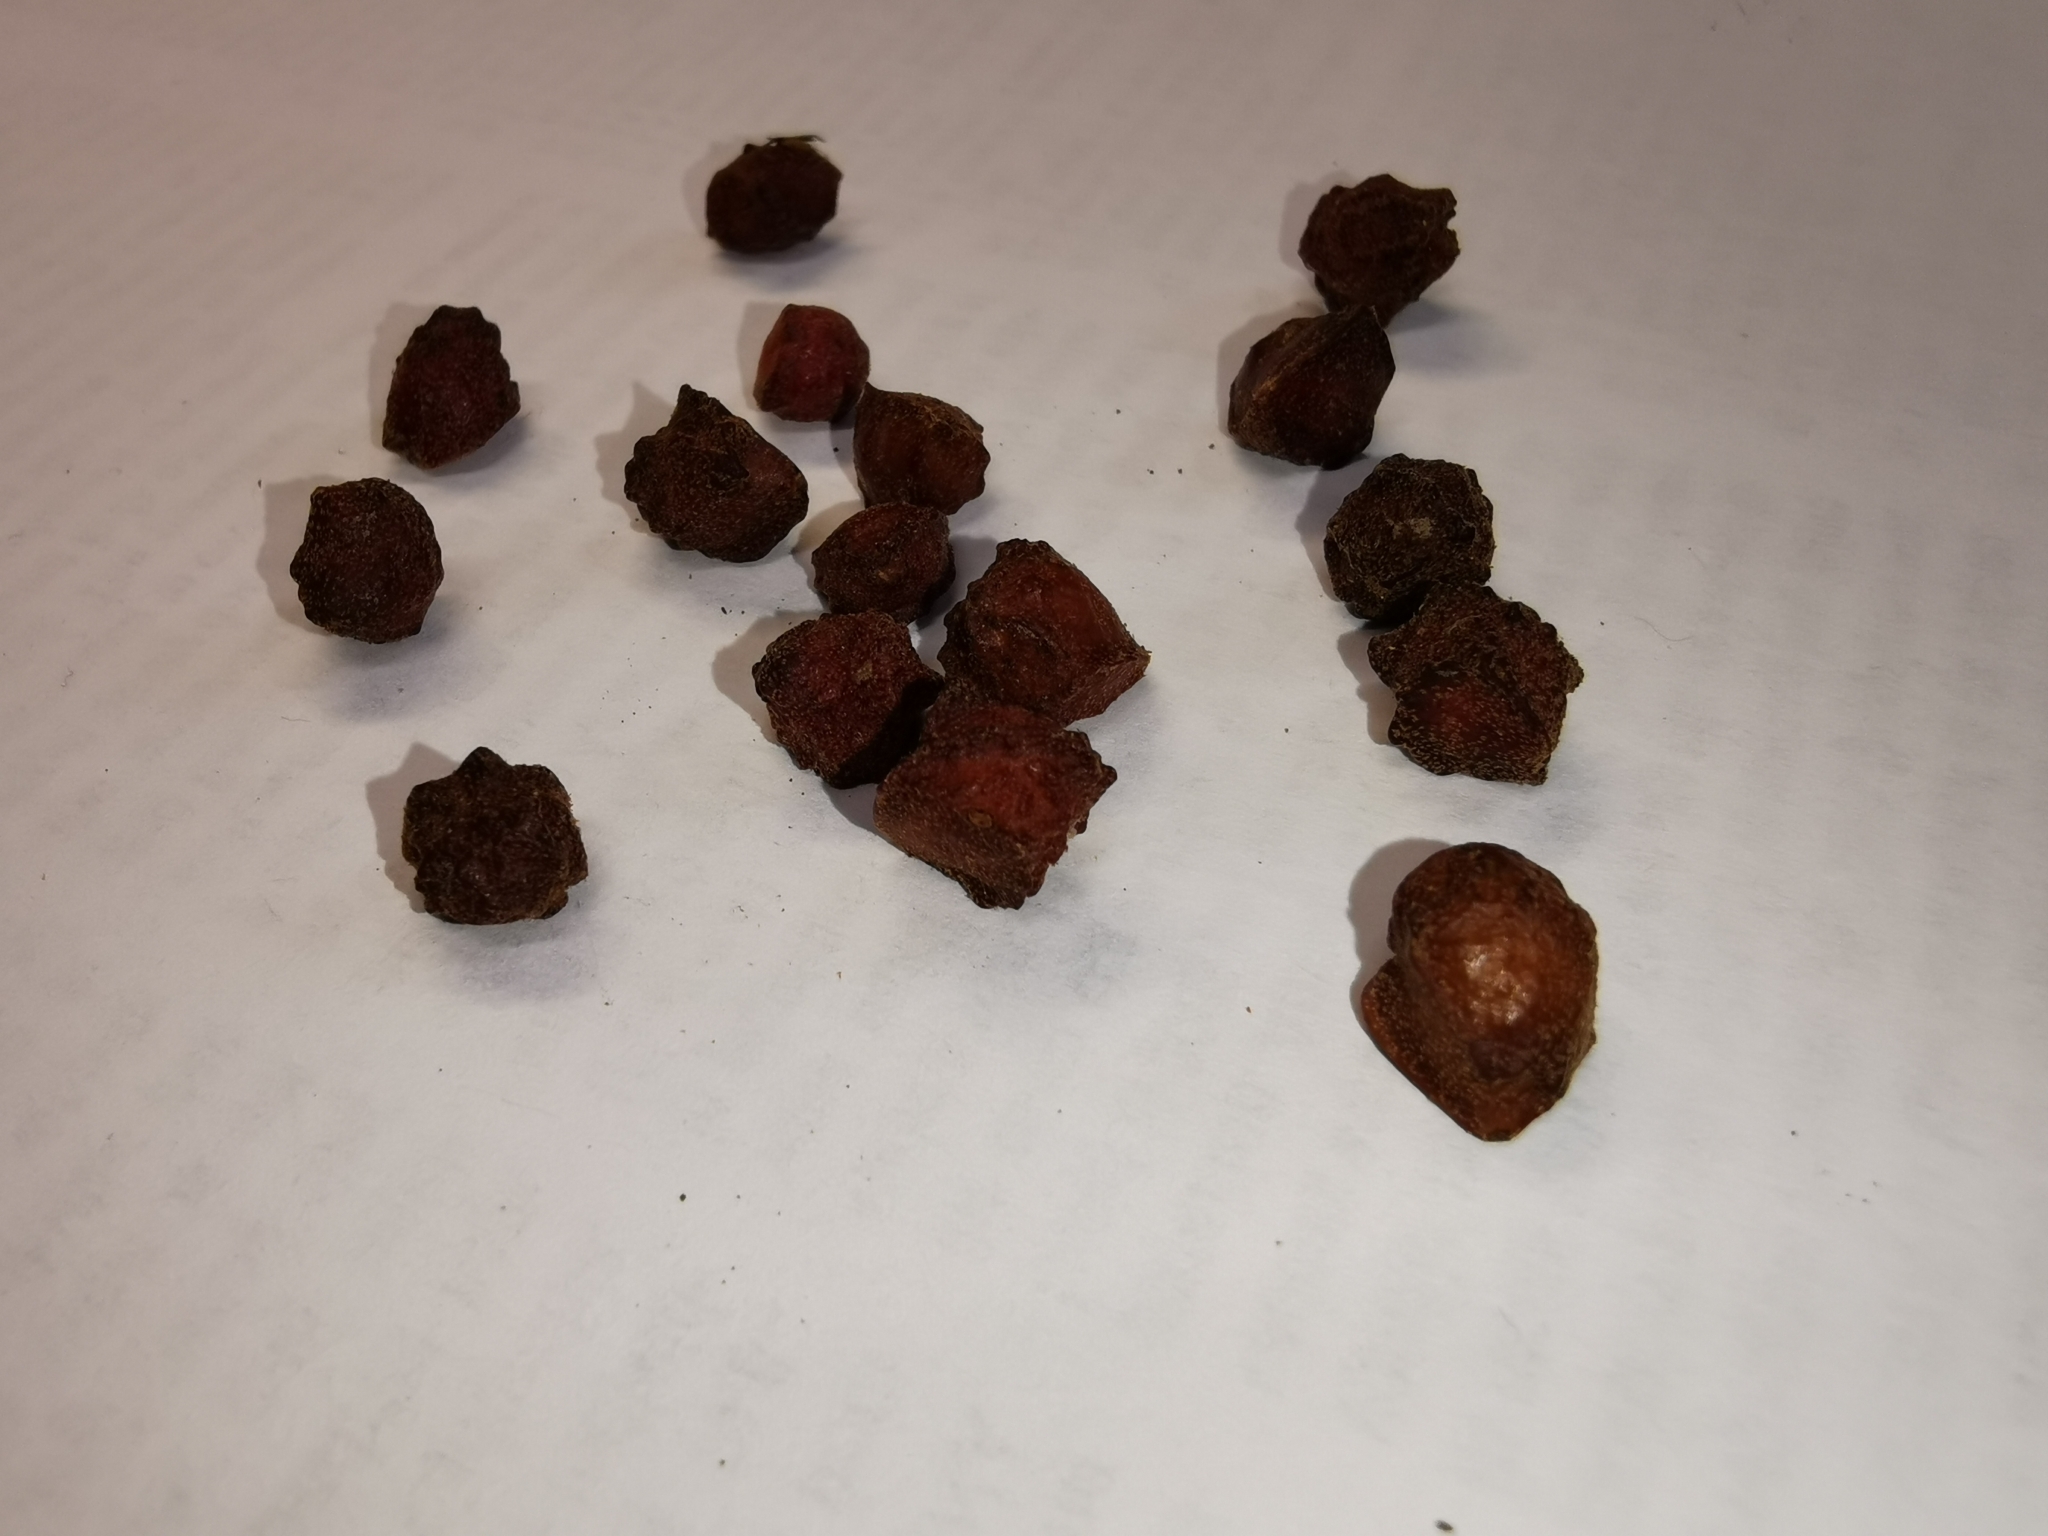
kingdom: Animalia
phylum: Arthropoda
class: Insecta
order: Hymenoptera
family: Cynipidae
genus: Andricus
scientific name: Andricus
